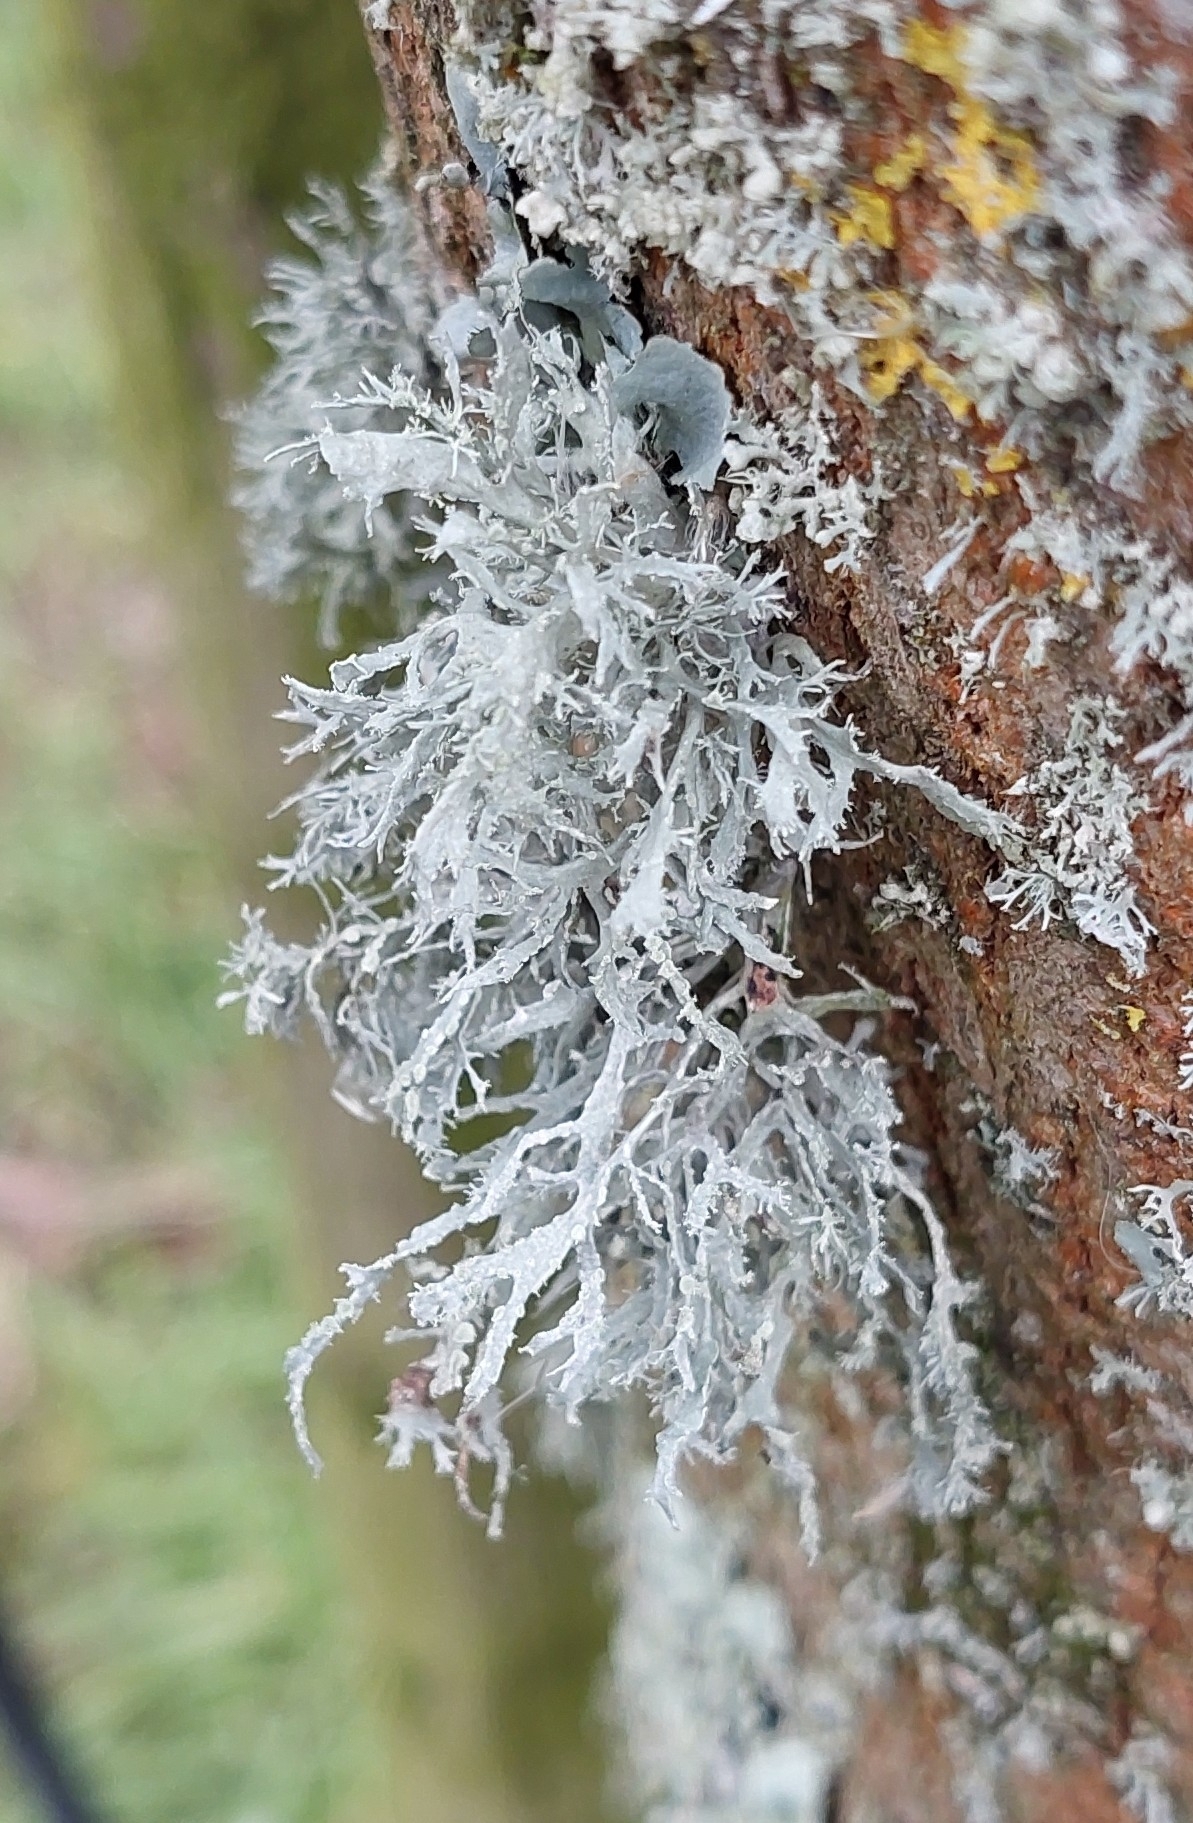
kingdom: Fungi
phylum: Ascomycota
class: Lecanoromycetes
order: Lecanorales
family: Ramalinaceae
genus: Ramalina
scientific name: Ramalina farinacea
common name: Farinose cartilage lichen
